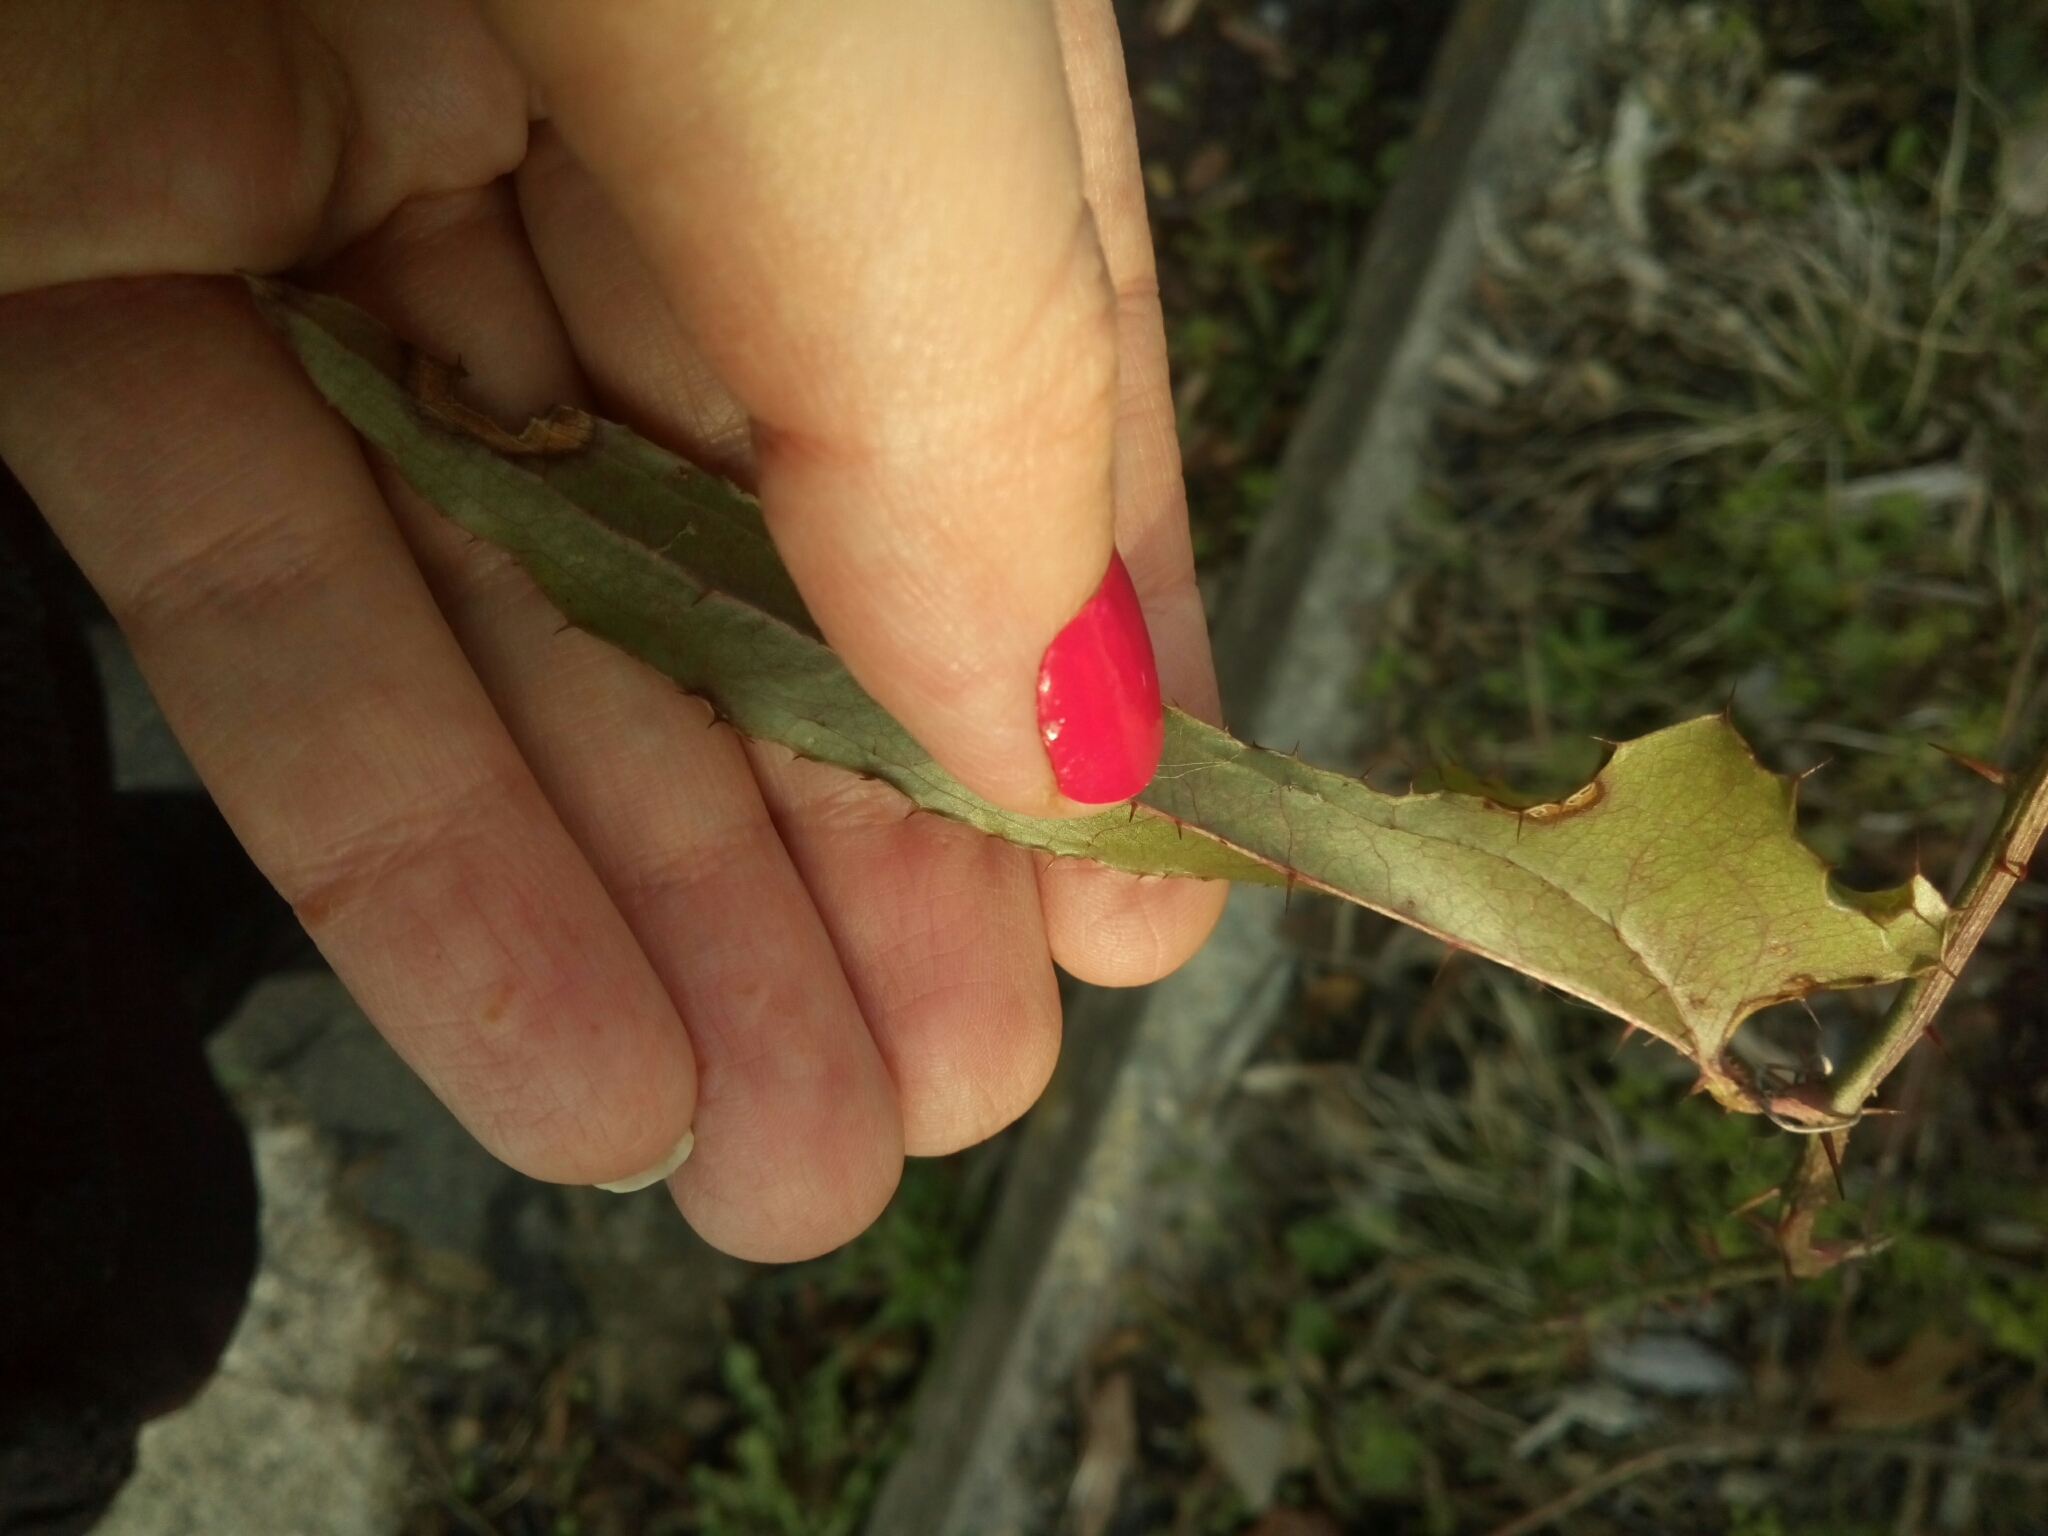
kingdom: Plantae
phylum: Tracheophyta
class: Liliopsida
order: Liliales
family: Smilacaceae
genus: Smilax
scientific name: Smilax bona-nox
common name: Catbrier
